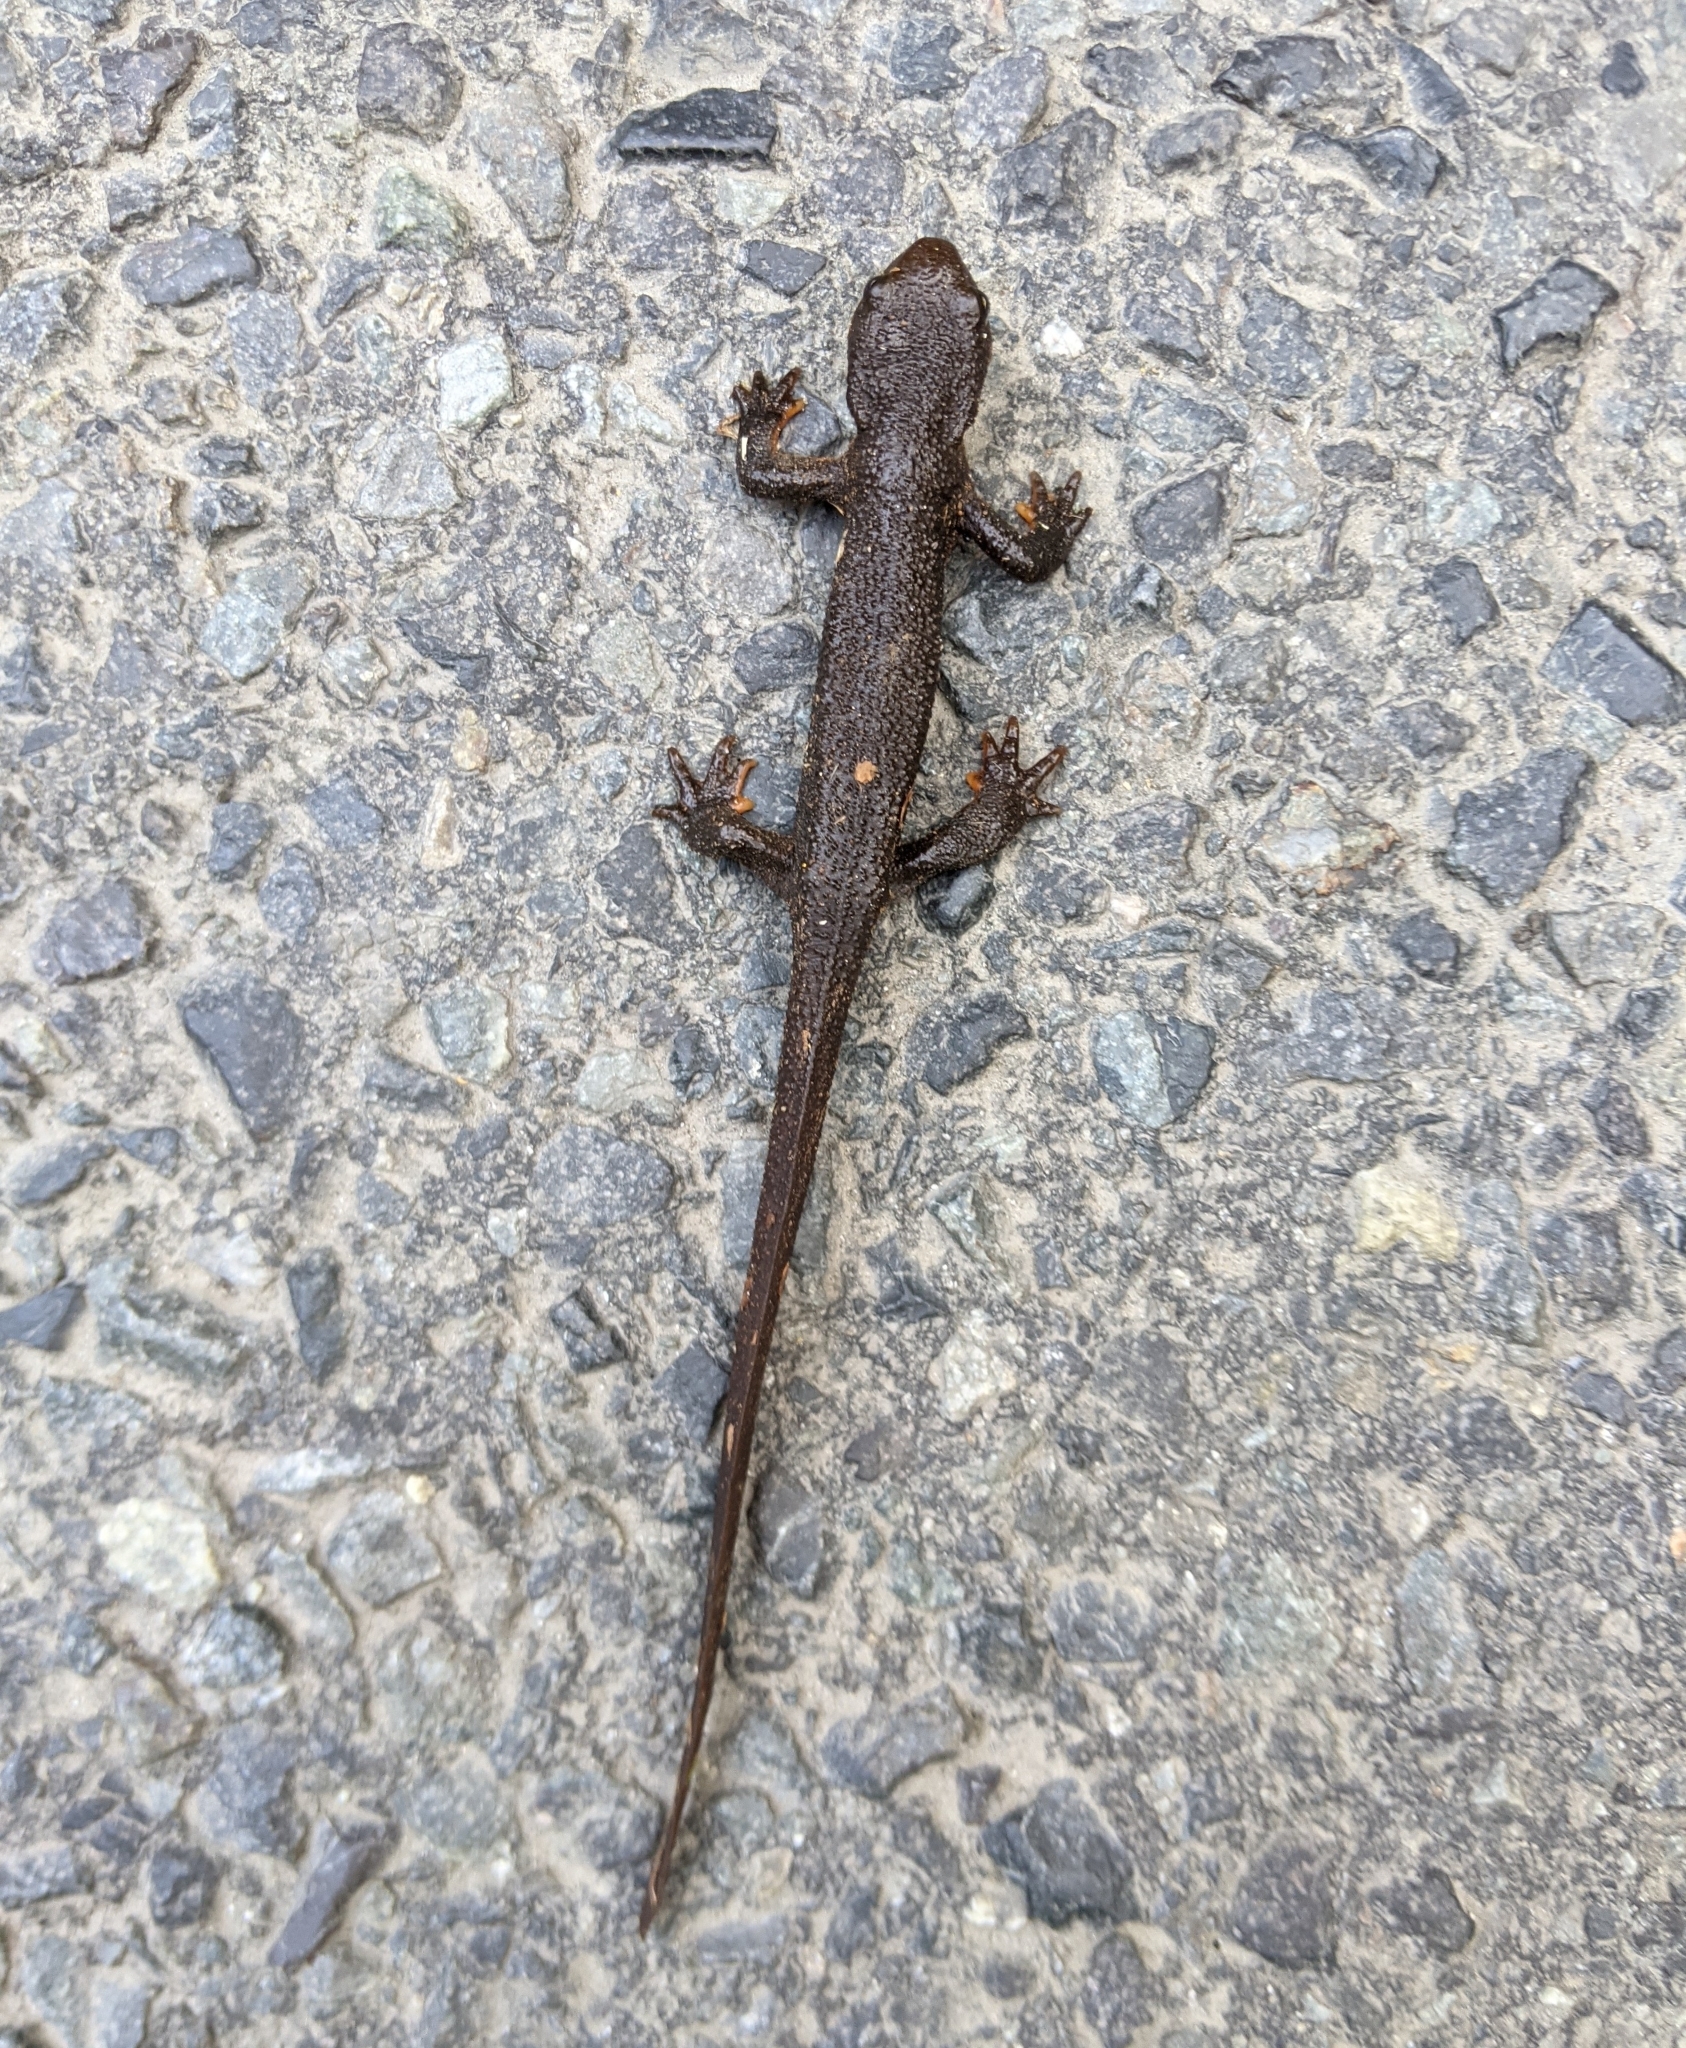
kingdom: Animalia
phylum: Chordata
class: Amphibia
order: Caudata
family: Salamandridae
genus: Taricha
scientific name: Taricha granulosa
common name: Roughskin newt
